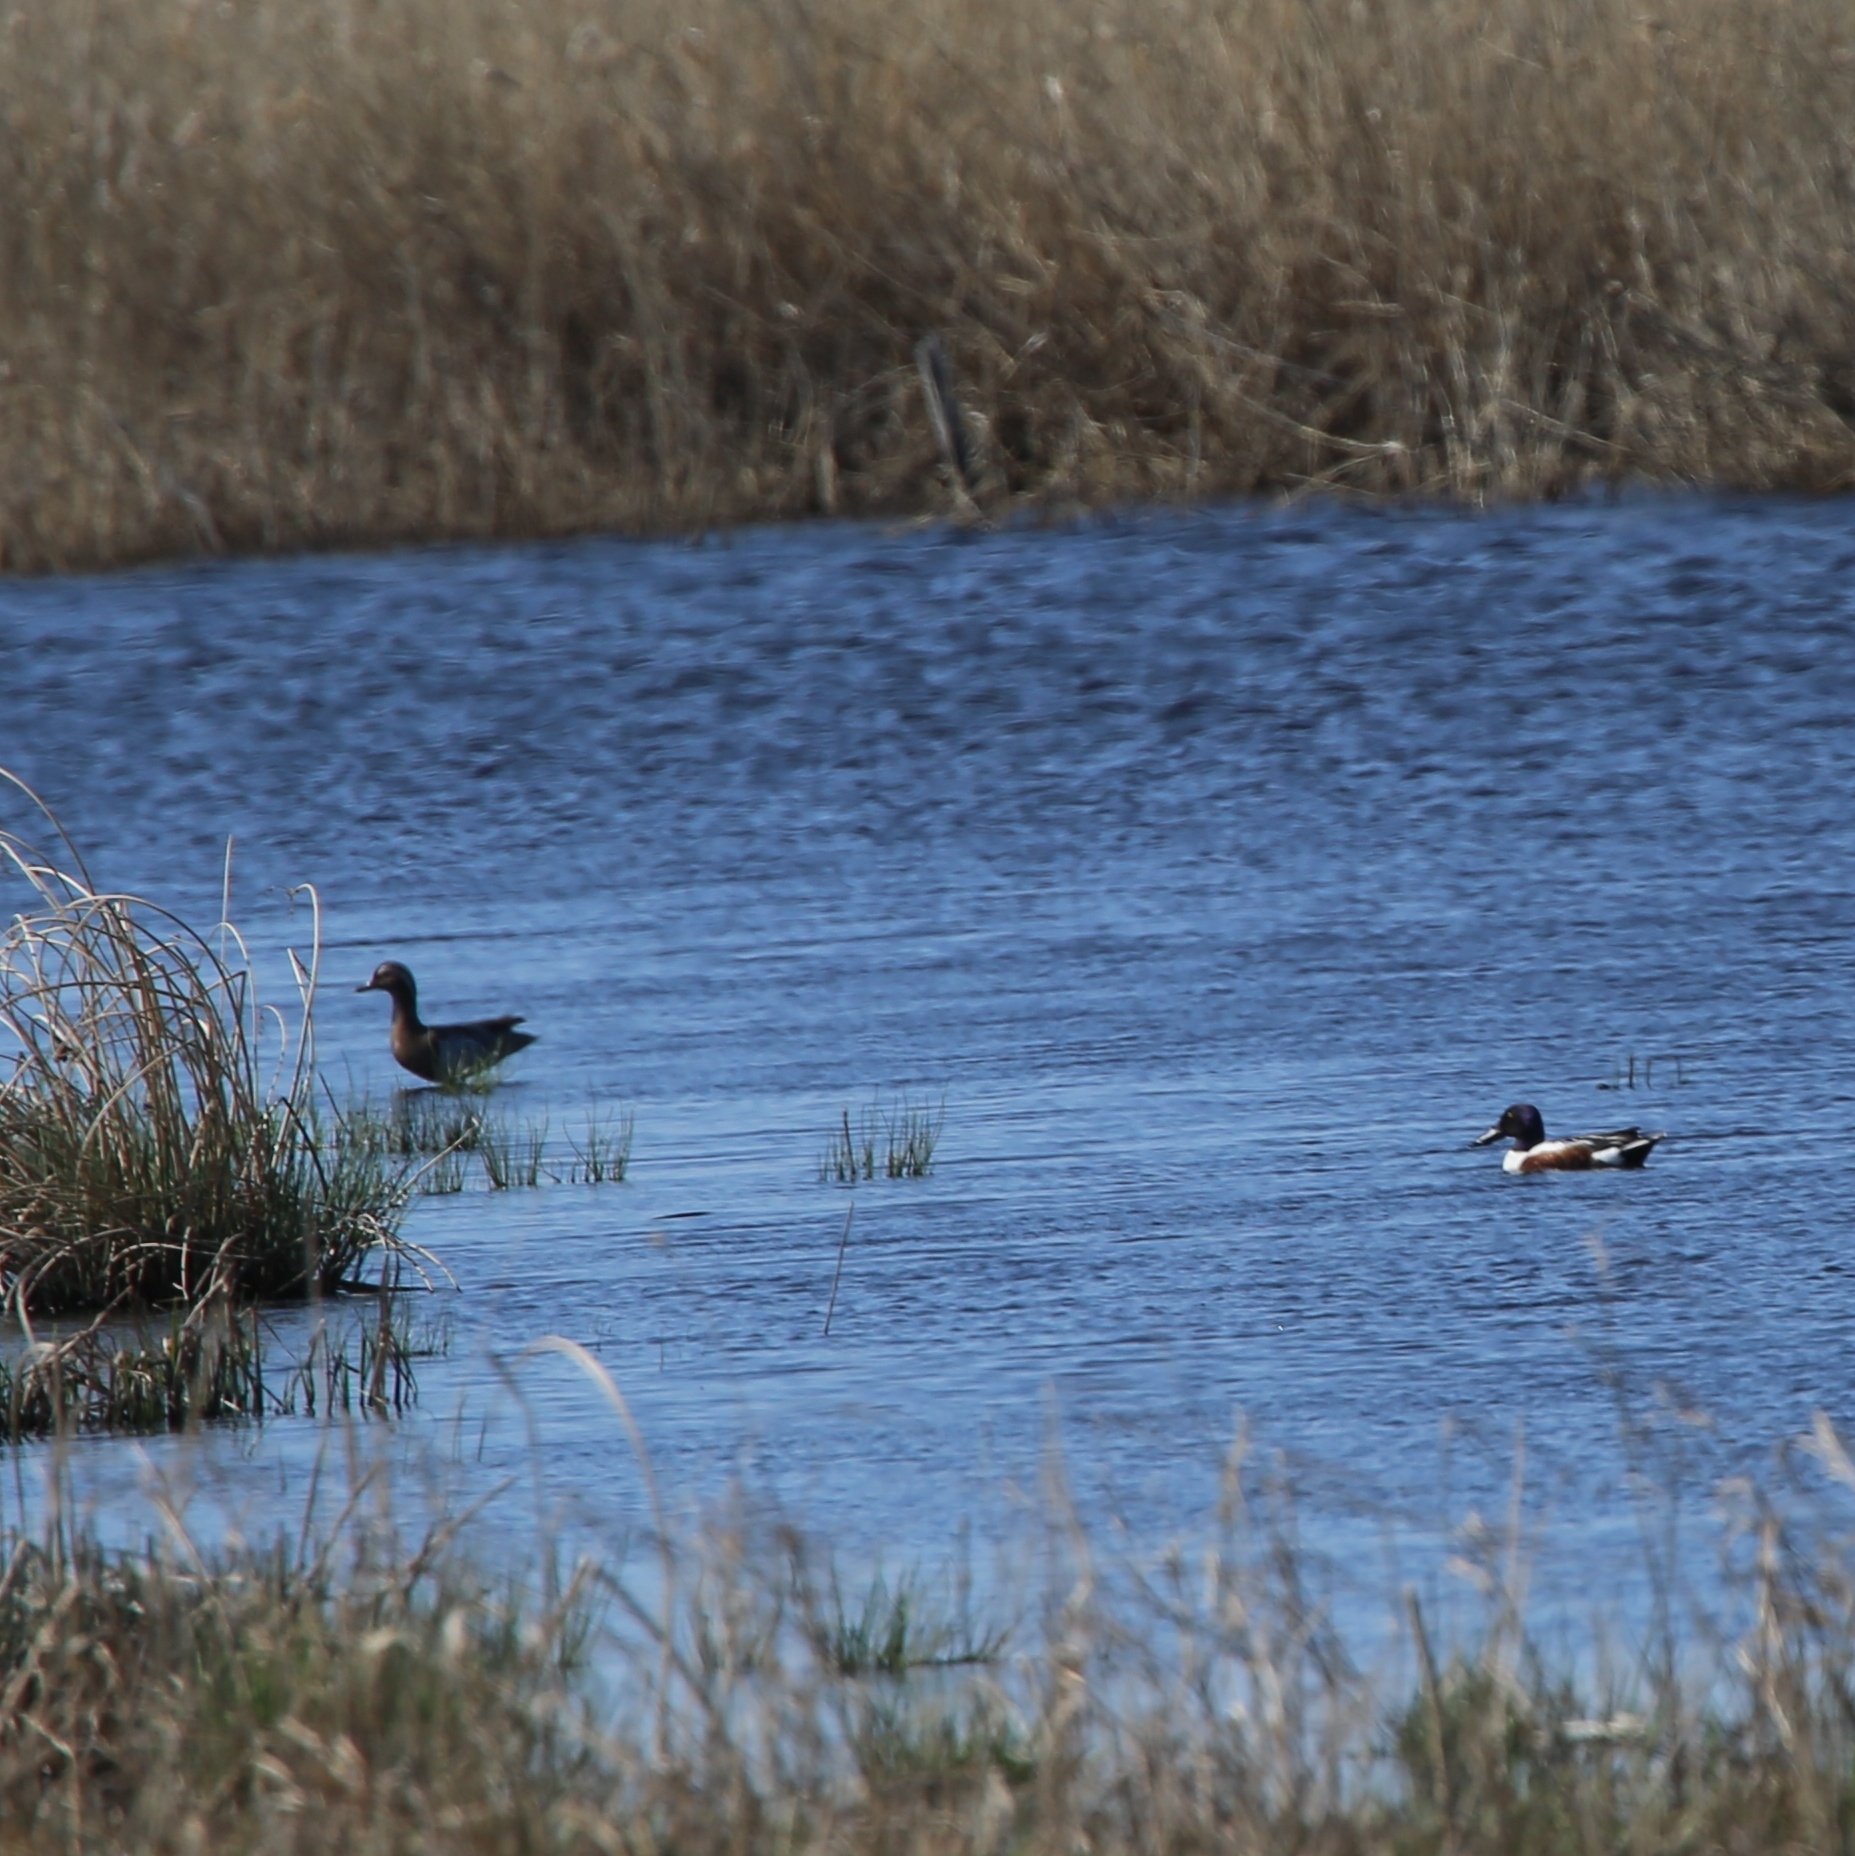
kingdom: Animalia
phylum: Chordata
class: Aves
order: Anseriformes
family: Anatidae
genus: Spatula
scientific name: Spatula clypeata
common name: Northern shoveler
